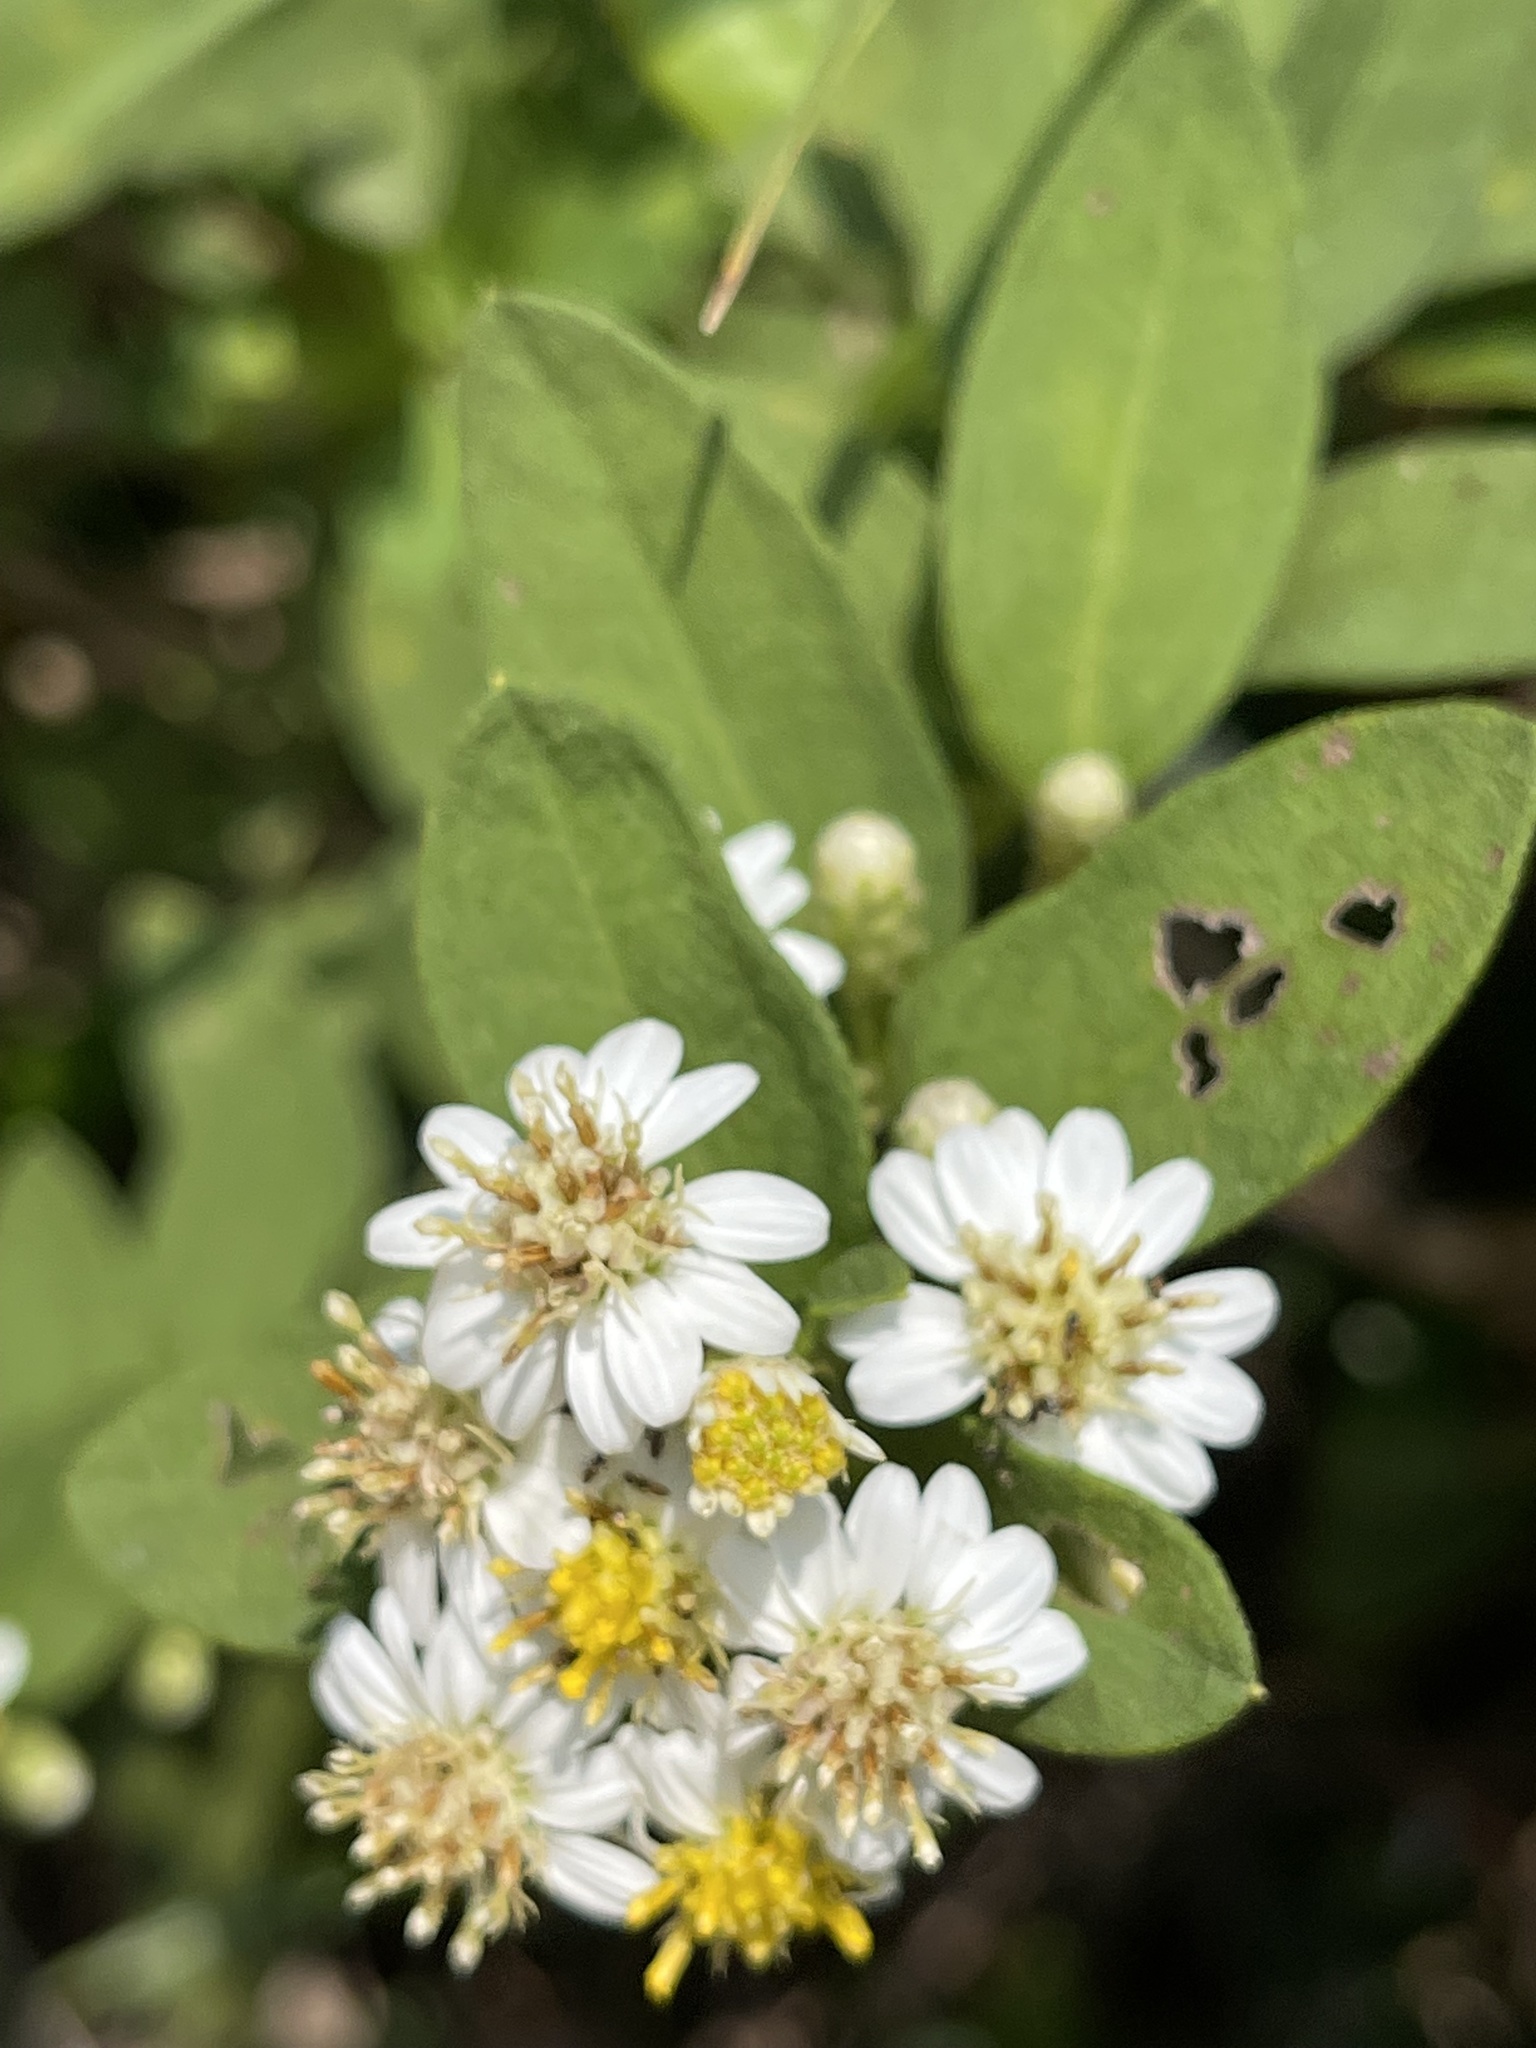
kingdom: Plantae
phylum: Tracheophyta
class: Magnoliopsida
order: Asterales
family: Asteraceae
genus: Aster
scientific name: Aster baccharoides
